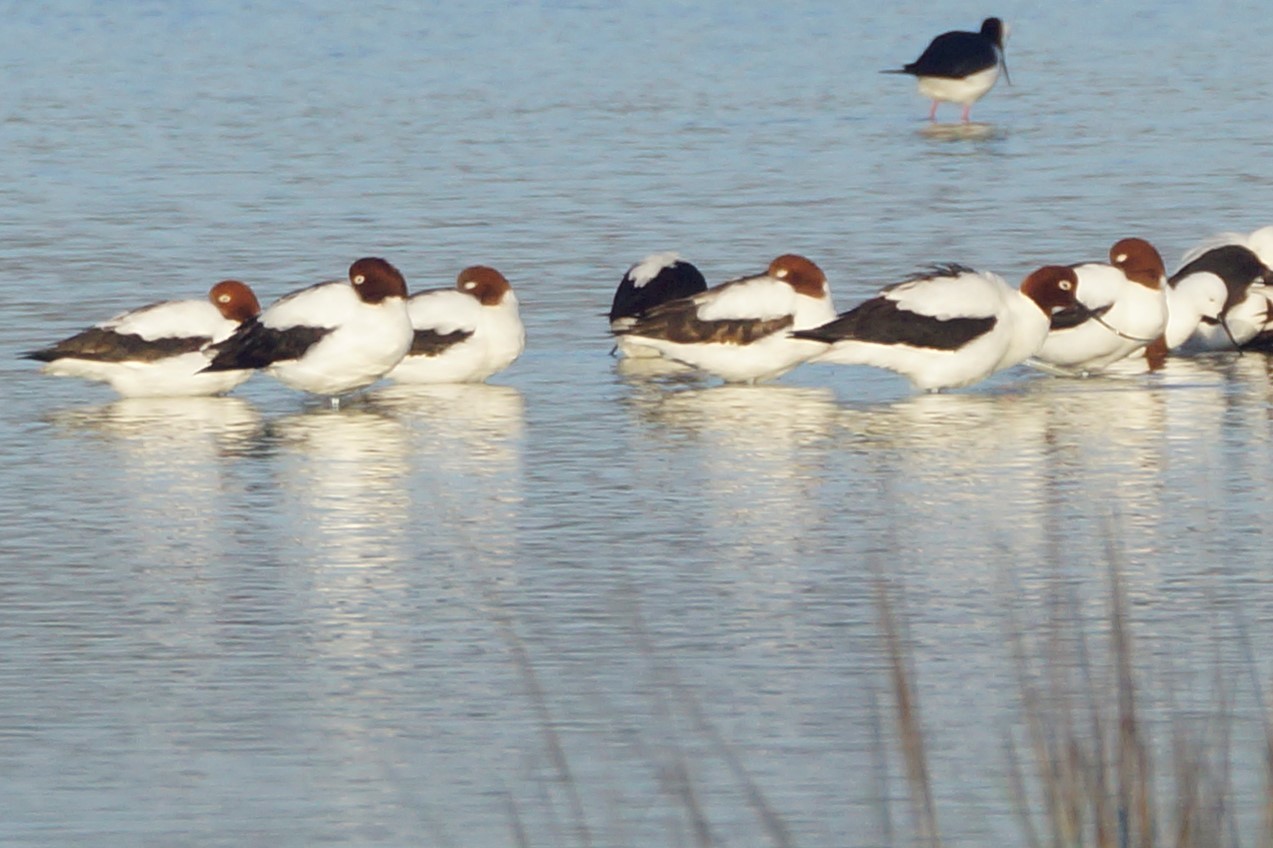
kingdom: Animalia
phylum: Chordata
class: Aves
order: Charadriiformes
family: Recurvirostridae
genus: Recurvirostra
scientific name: Recurvirostra novaehollandiae
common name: Red-necked avocet
